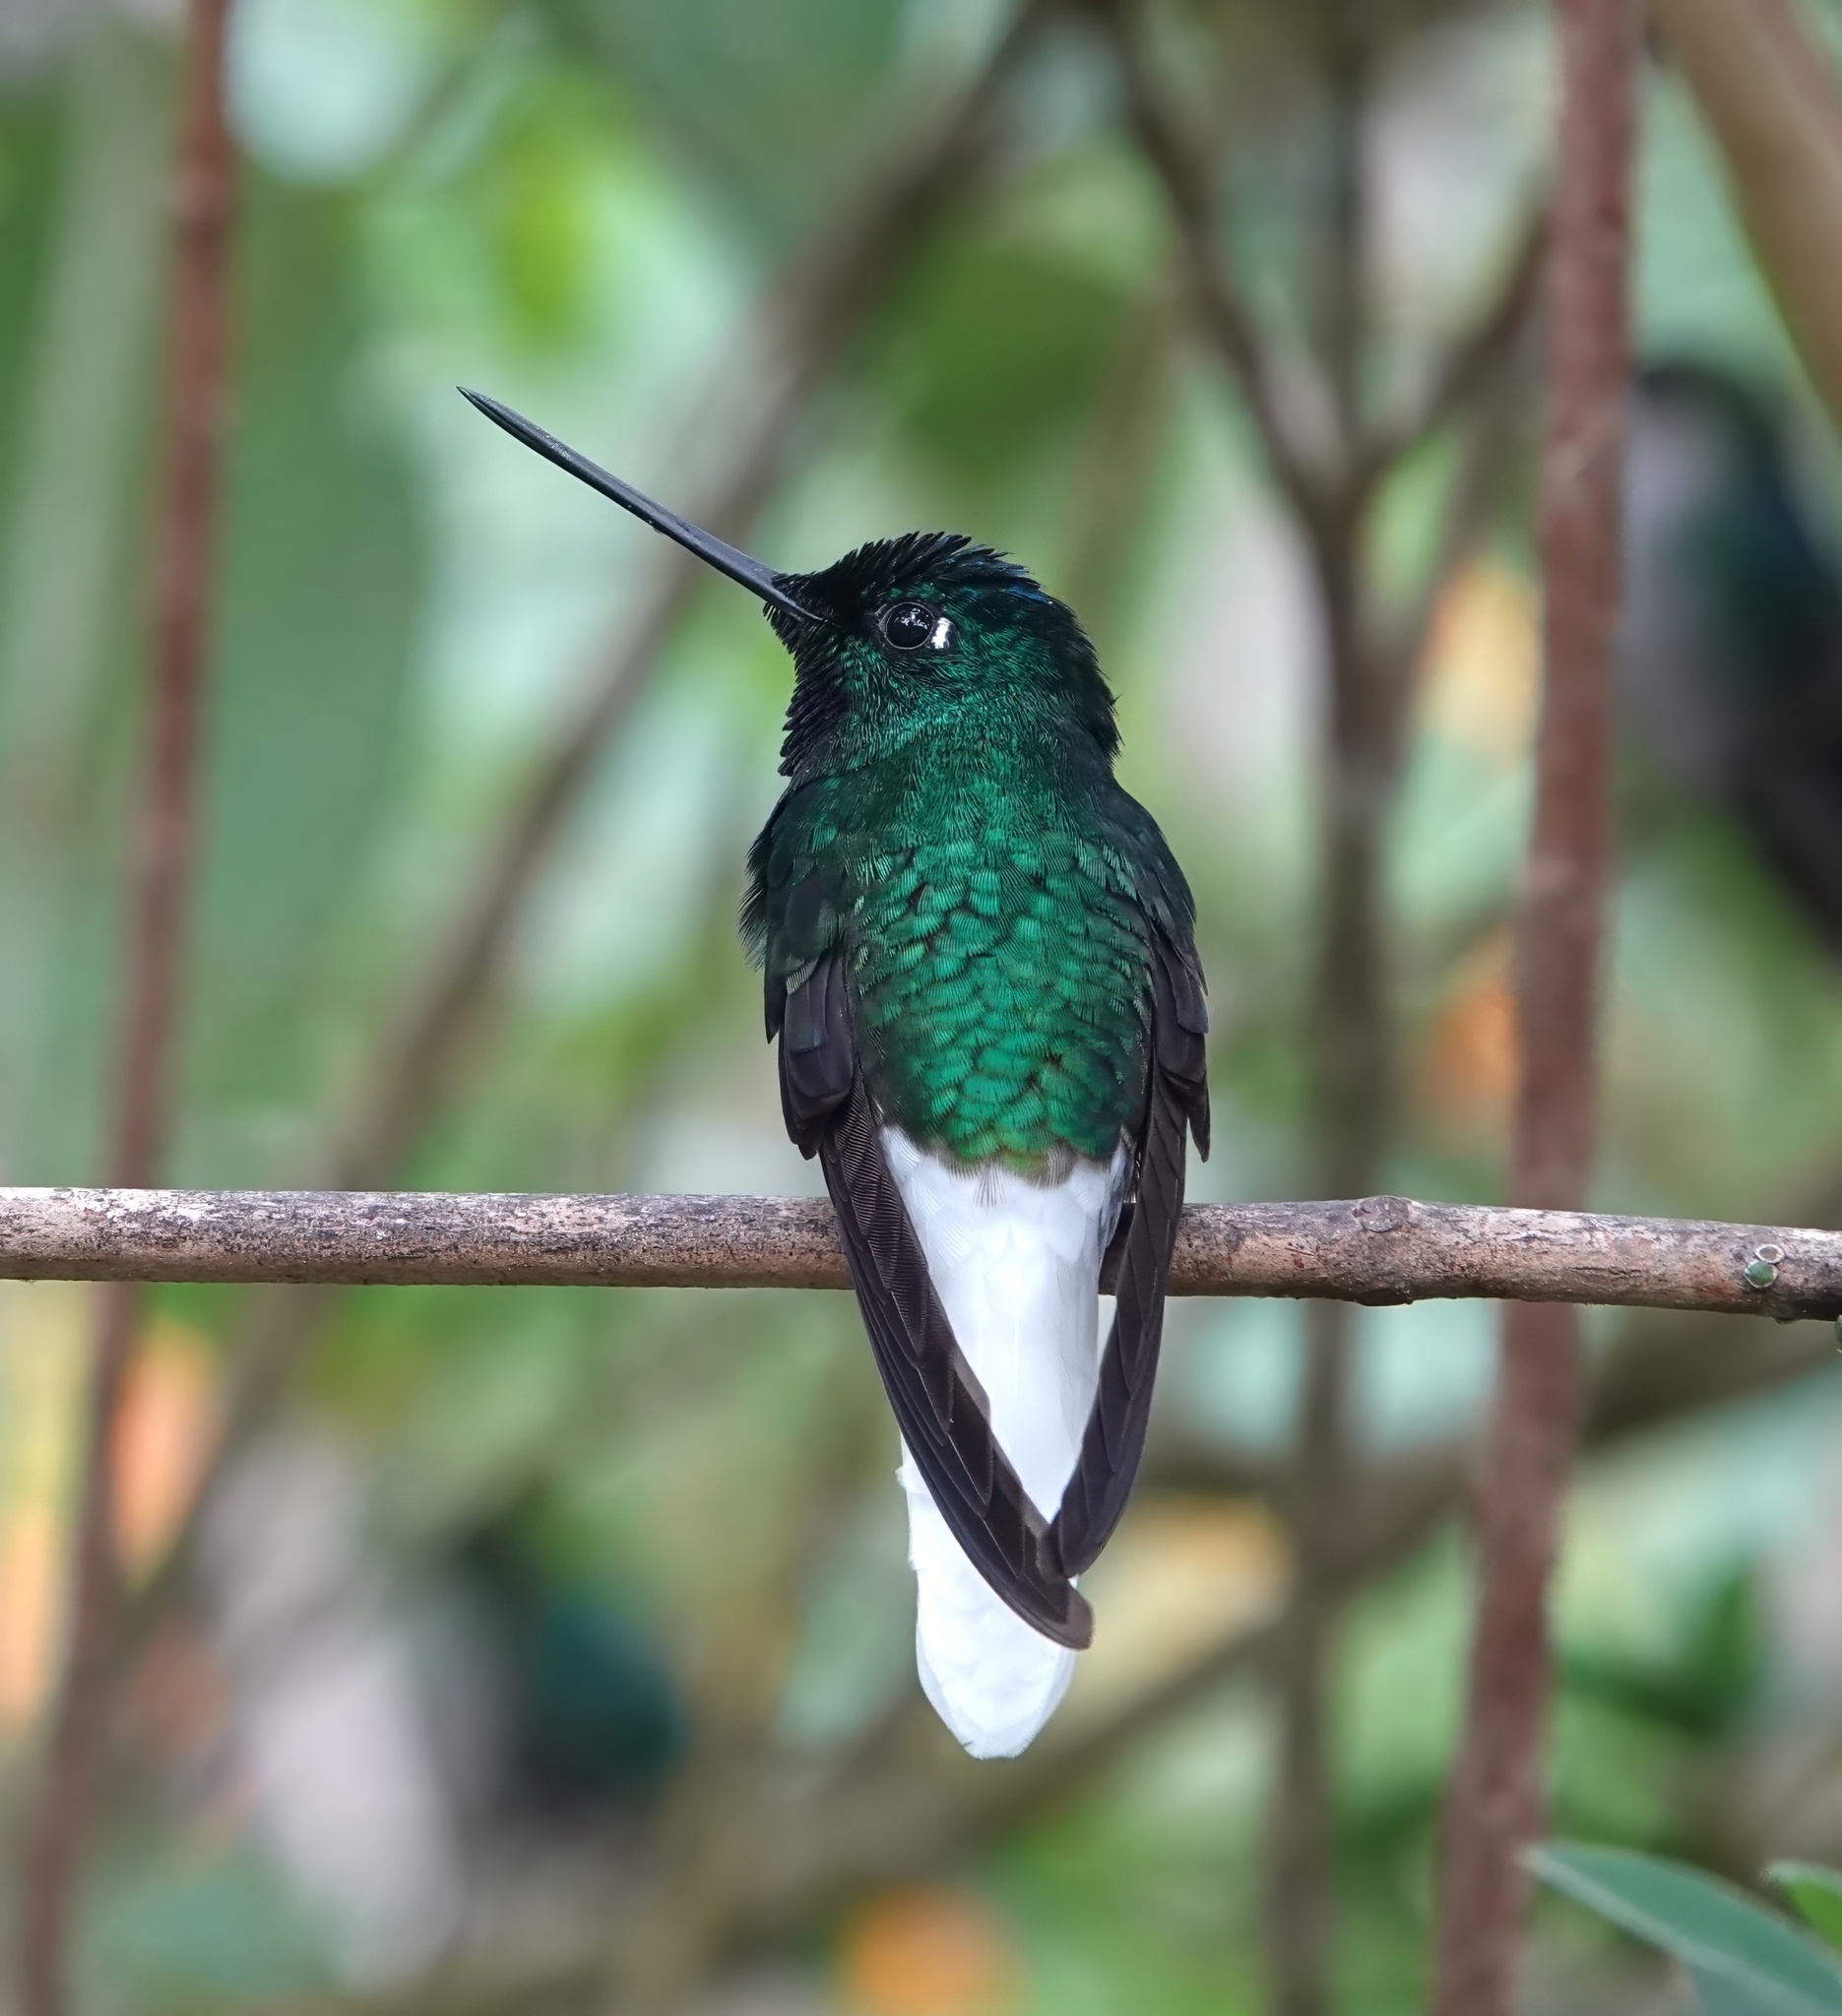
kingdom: Animalia
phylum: Chordata
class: Aves
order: Apodiformes
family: Trochilidae
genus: Coeligena
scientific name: Coeligena phalerata
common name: White-tailed starfrontlet
